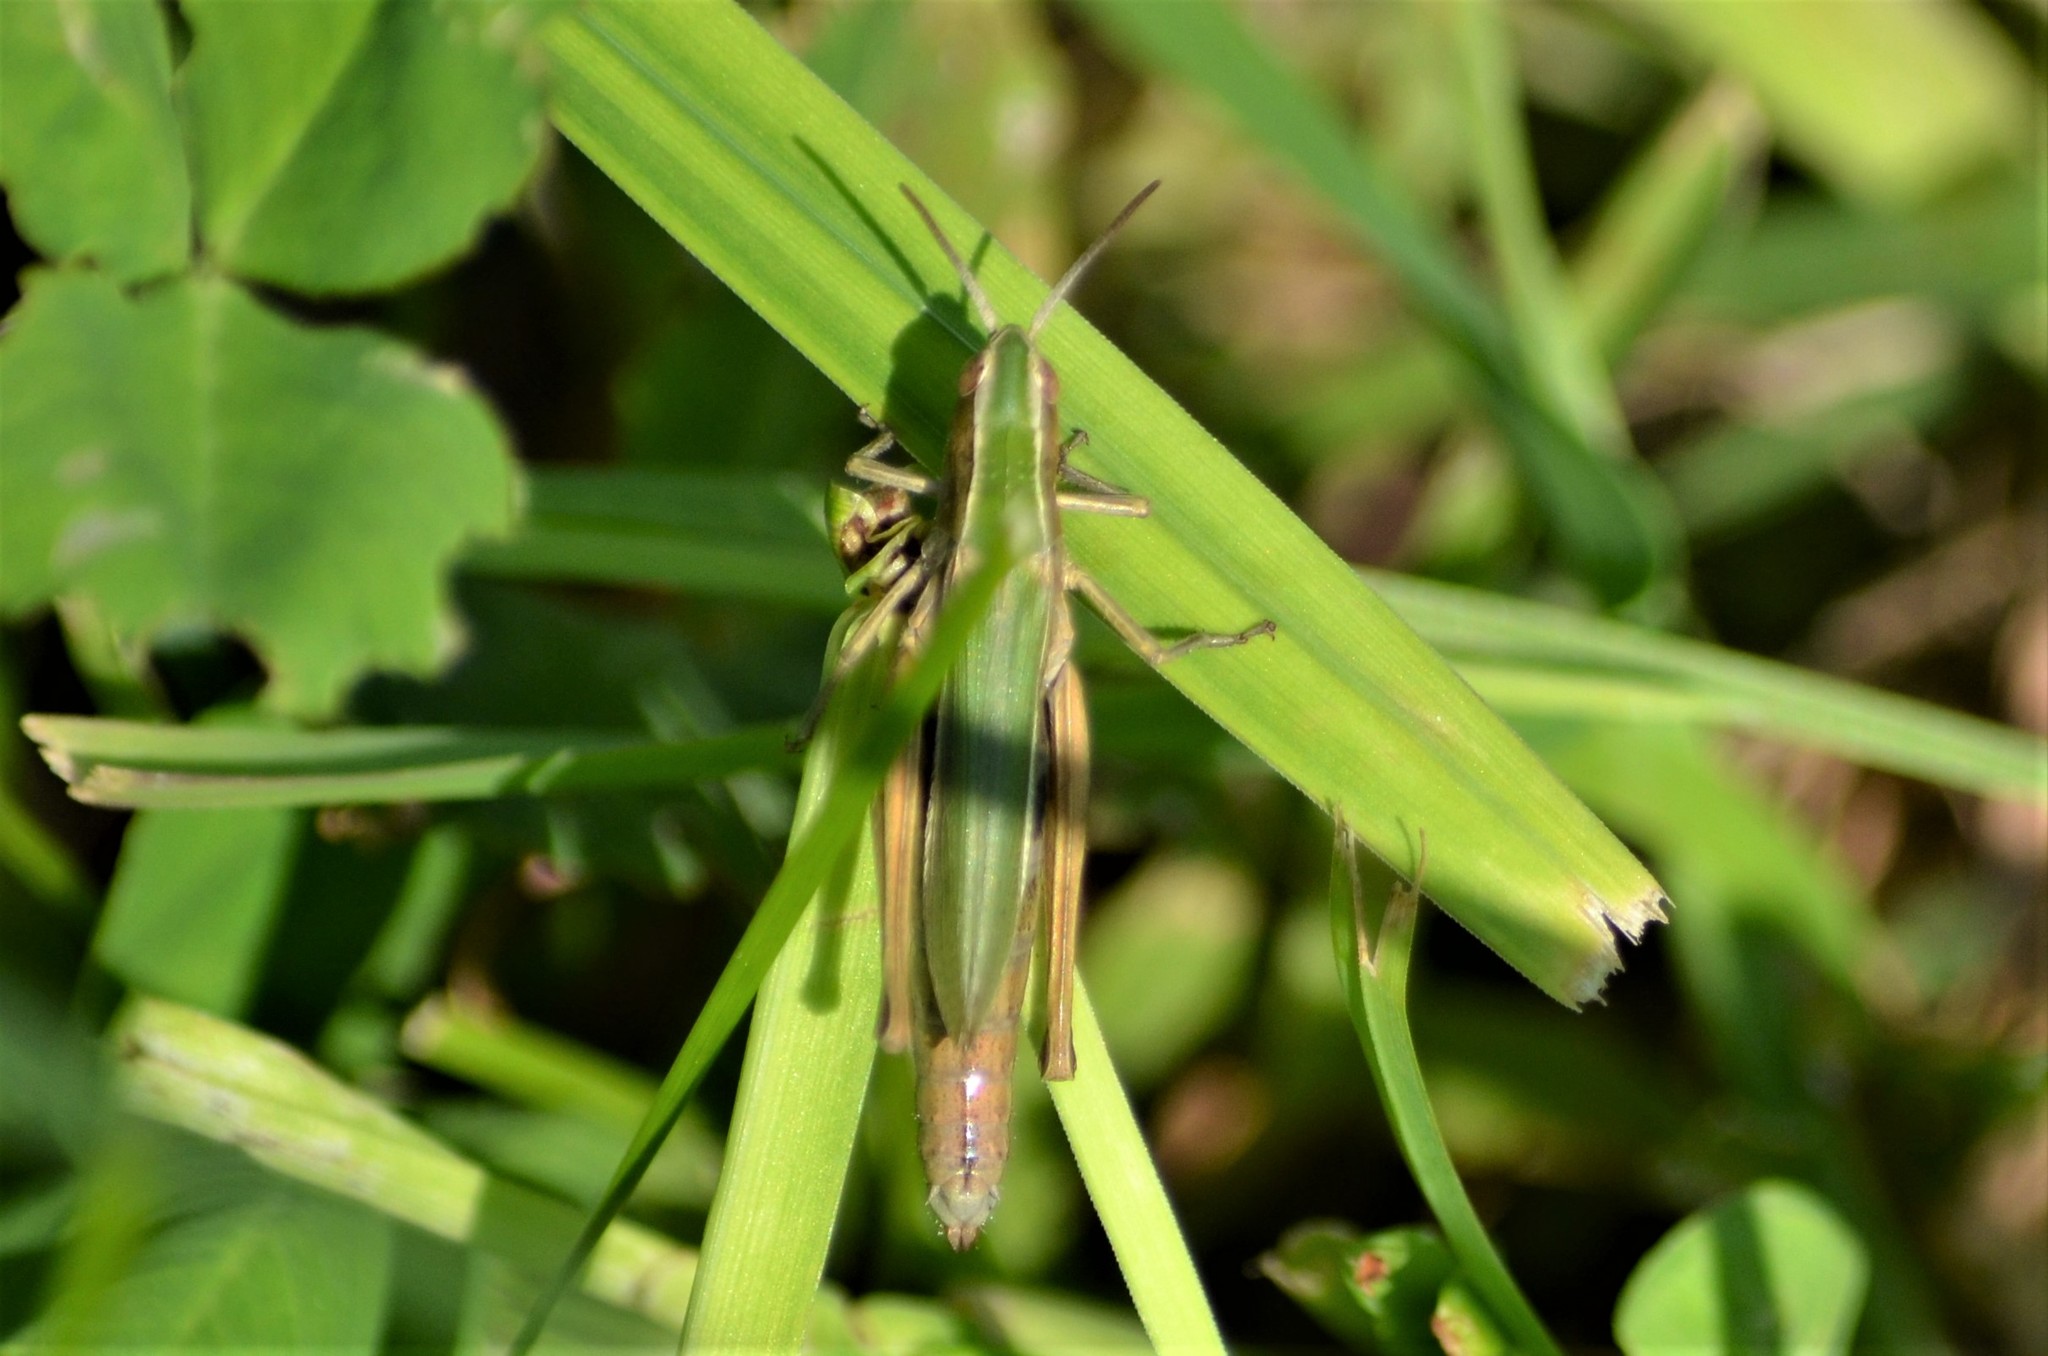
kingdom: Animalia
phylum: Arthropoda
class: Insecta
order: Orthoptera
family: Acrididae
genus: Chorthippus
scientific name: Chorthippus albomarginatus
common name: Lesser marsh grasshopper
